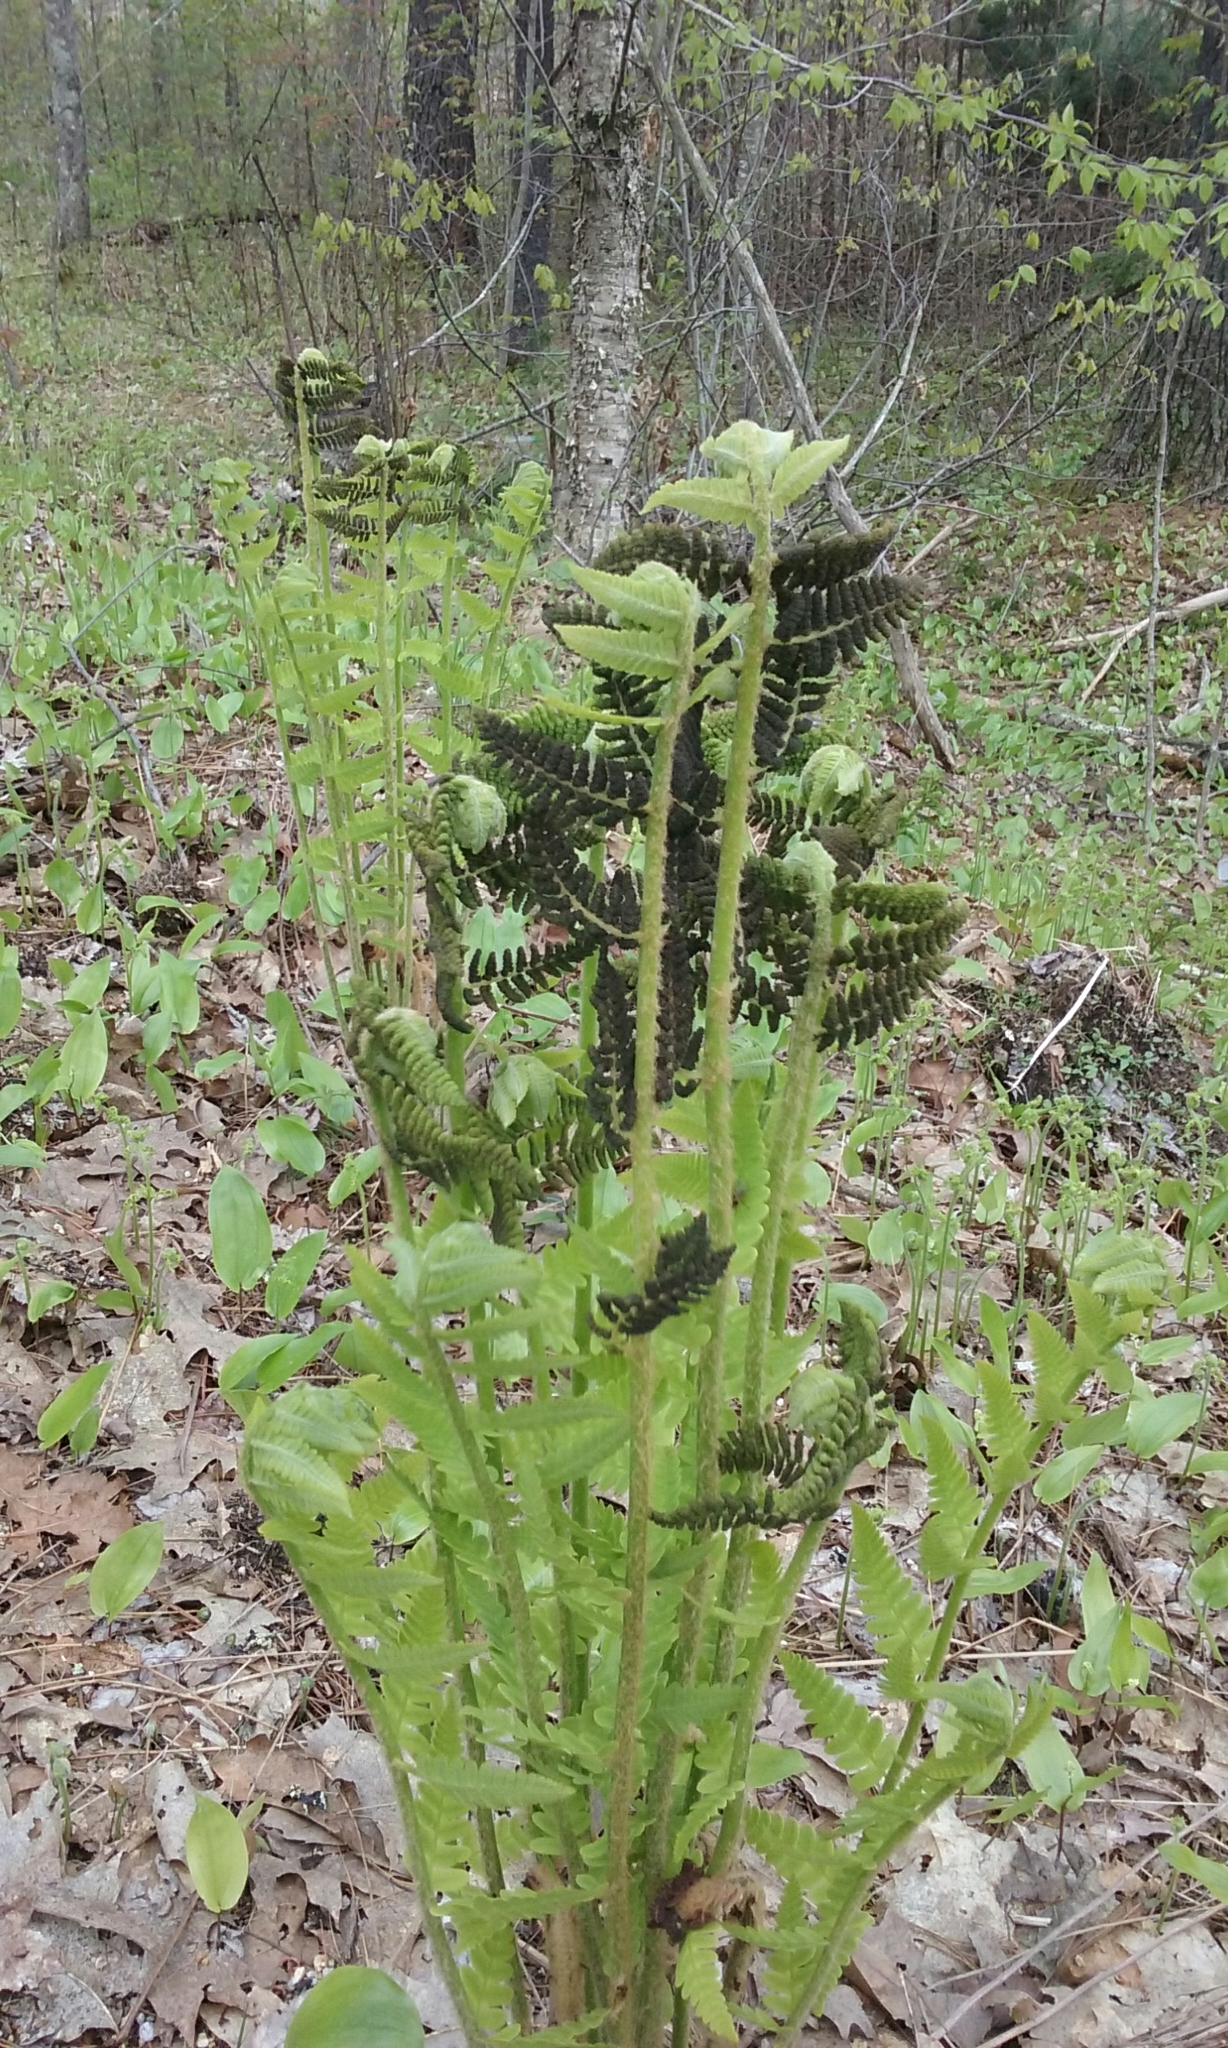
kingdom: Plantae
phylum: Tracheophyta
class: Polypodiopsida
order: Osmundales
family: Osmundaceae
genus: Claytosmunda
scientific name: Claytosmunda claytoniana
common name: Clayton's fern
